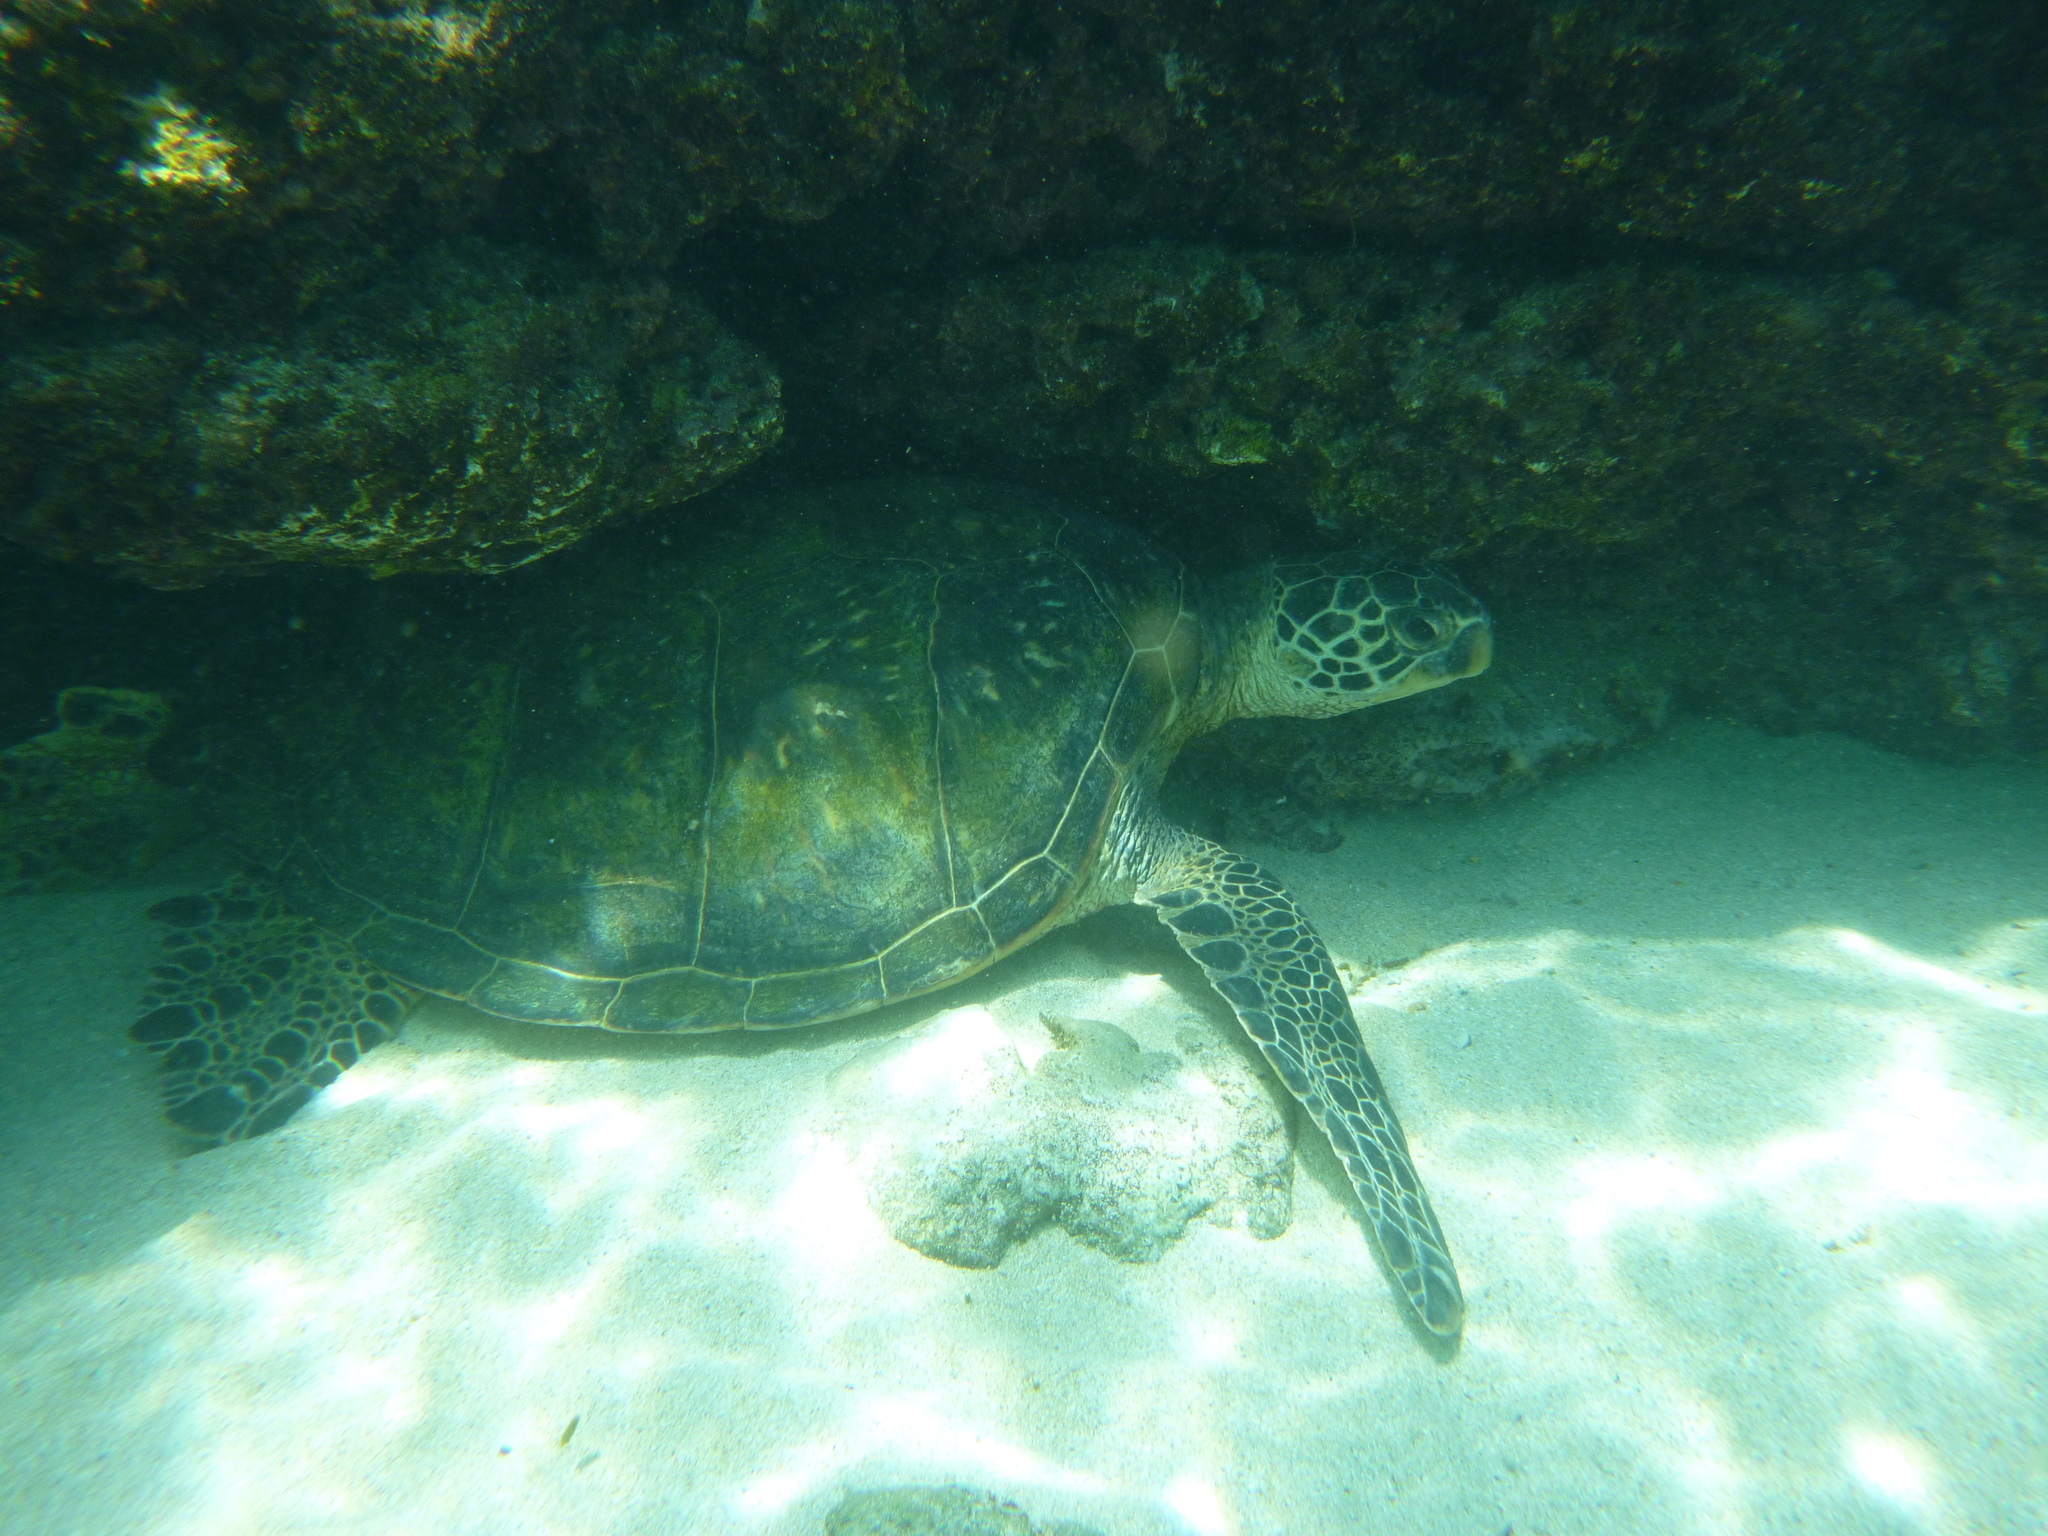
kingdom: Animalia
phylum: Chordata
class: Testudines
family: Cheloniidae
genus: Chelonia
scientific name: Chelonia mydas
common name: Green turtle
